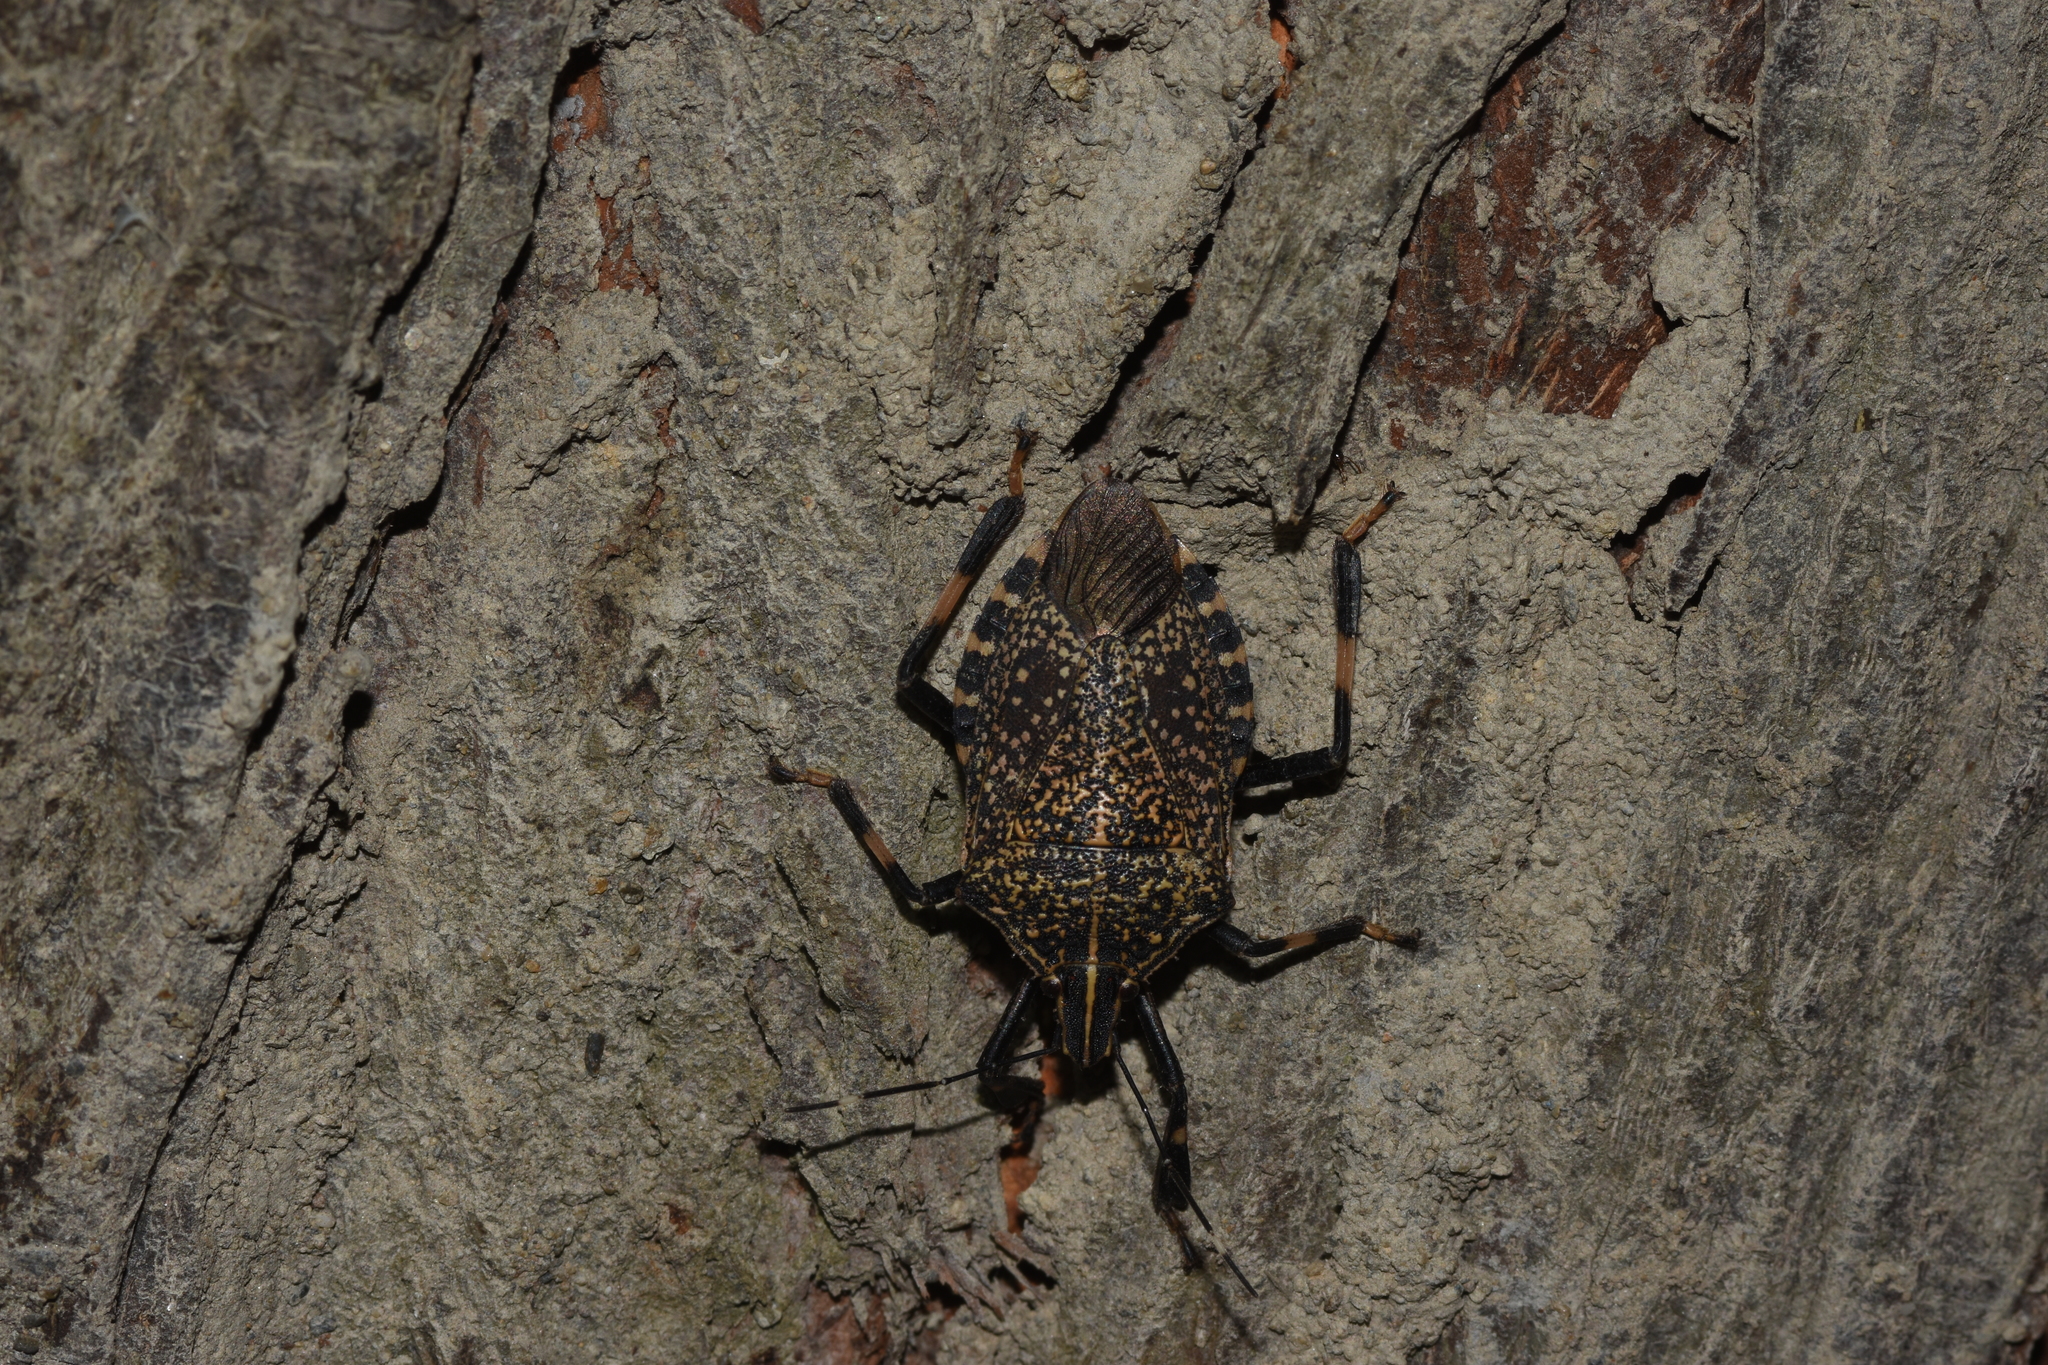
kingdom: Animalia
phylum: Arthropoda
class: Insecta
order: Hemiptera
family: Pentatomidae
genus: Erthesina
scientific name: Erthesina fullo
